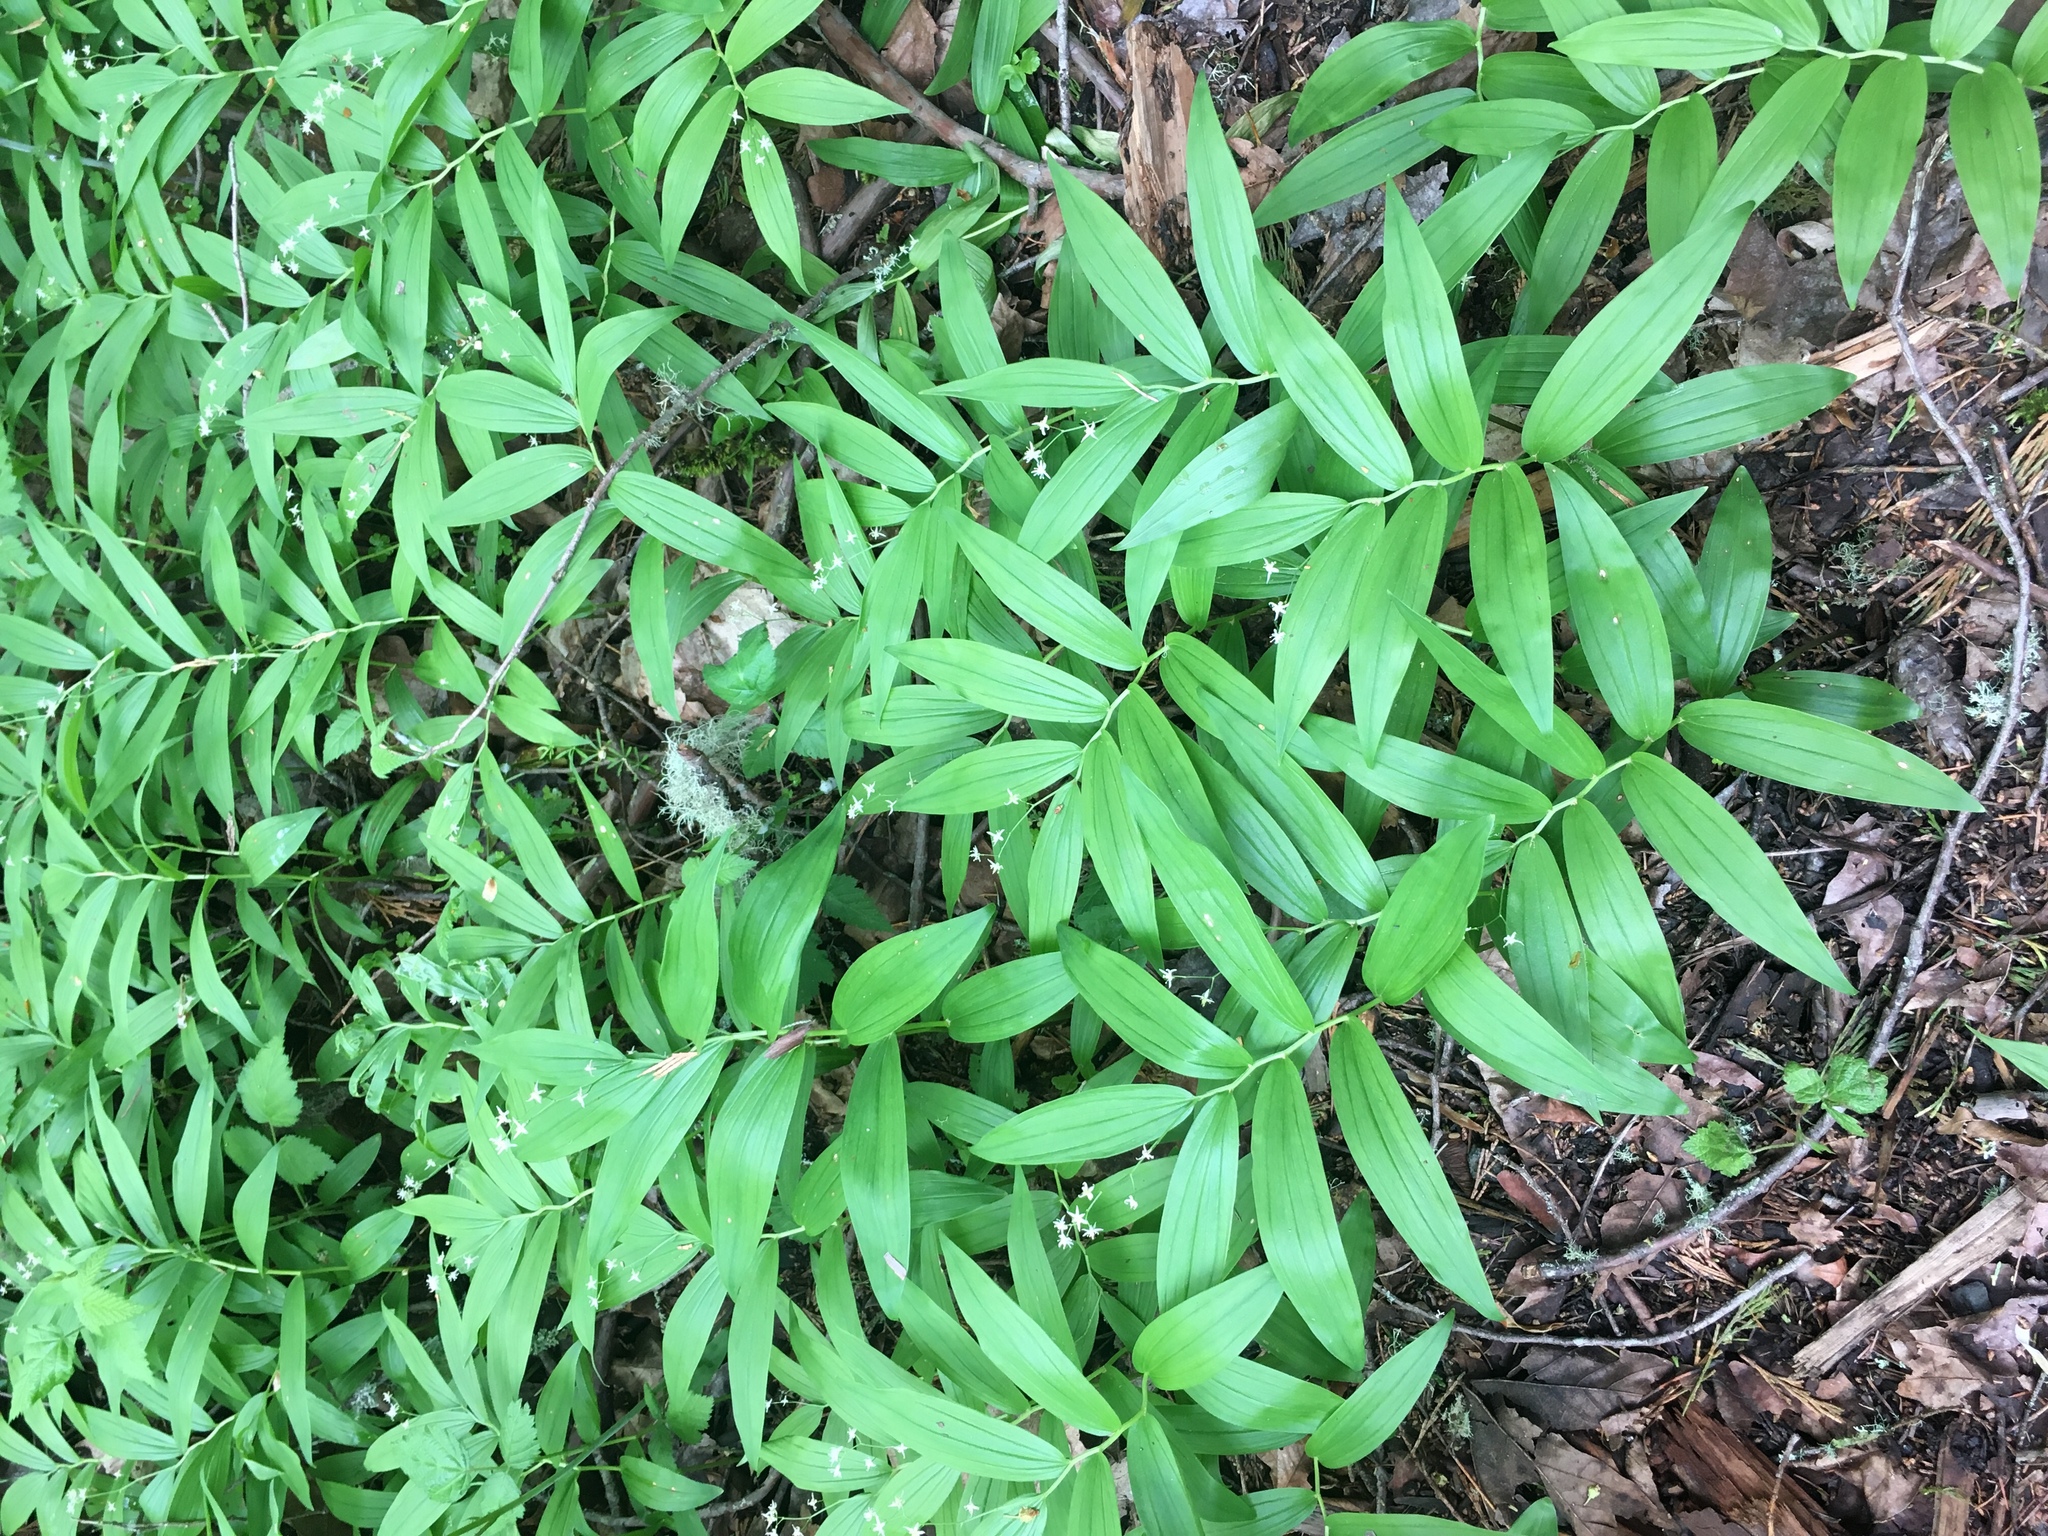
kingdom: Plantae
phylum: Tracheophyta
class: Liliopsida
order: Asparagales
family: Asparagaceae
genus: Maianthemum
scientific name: Maianthemum stellatum
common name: Little false solomon's seal
